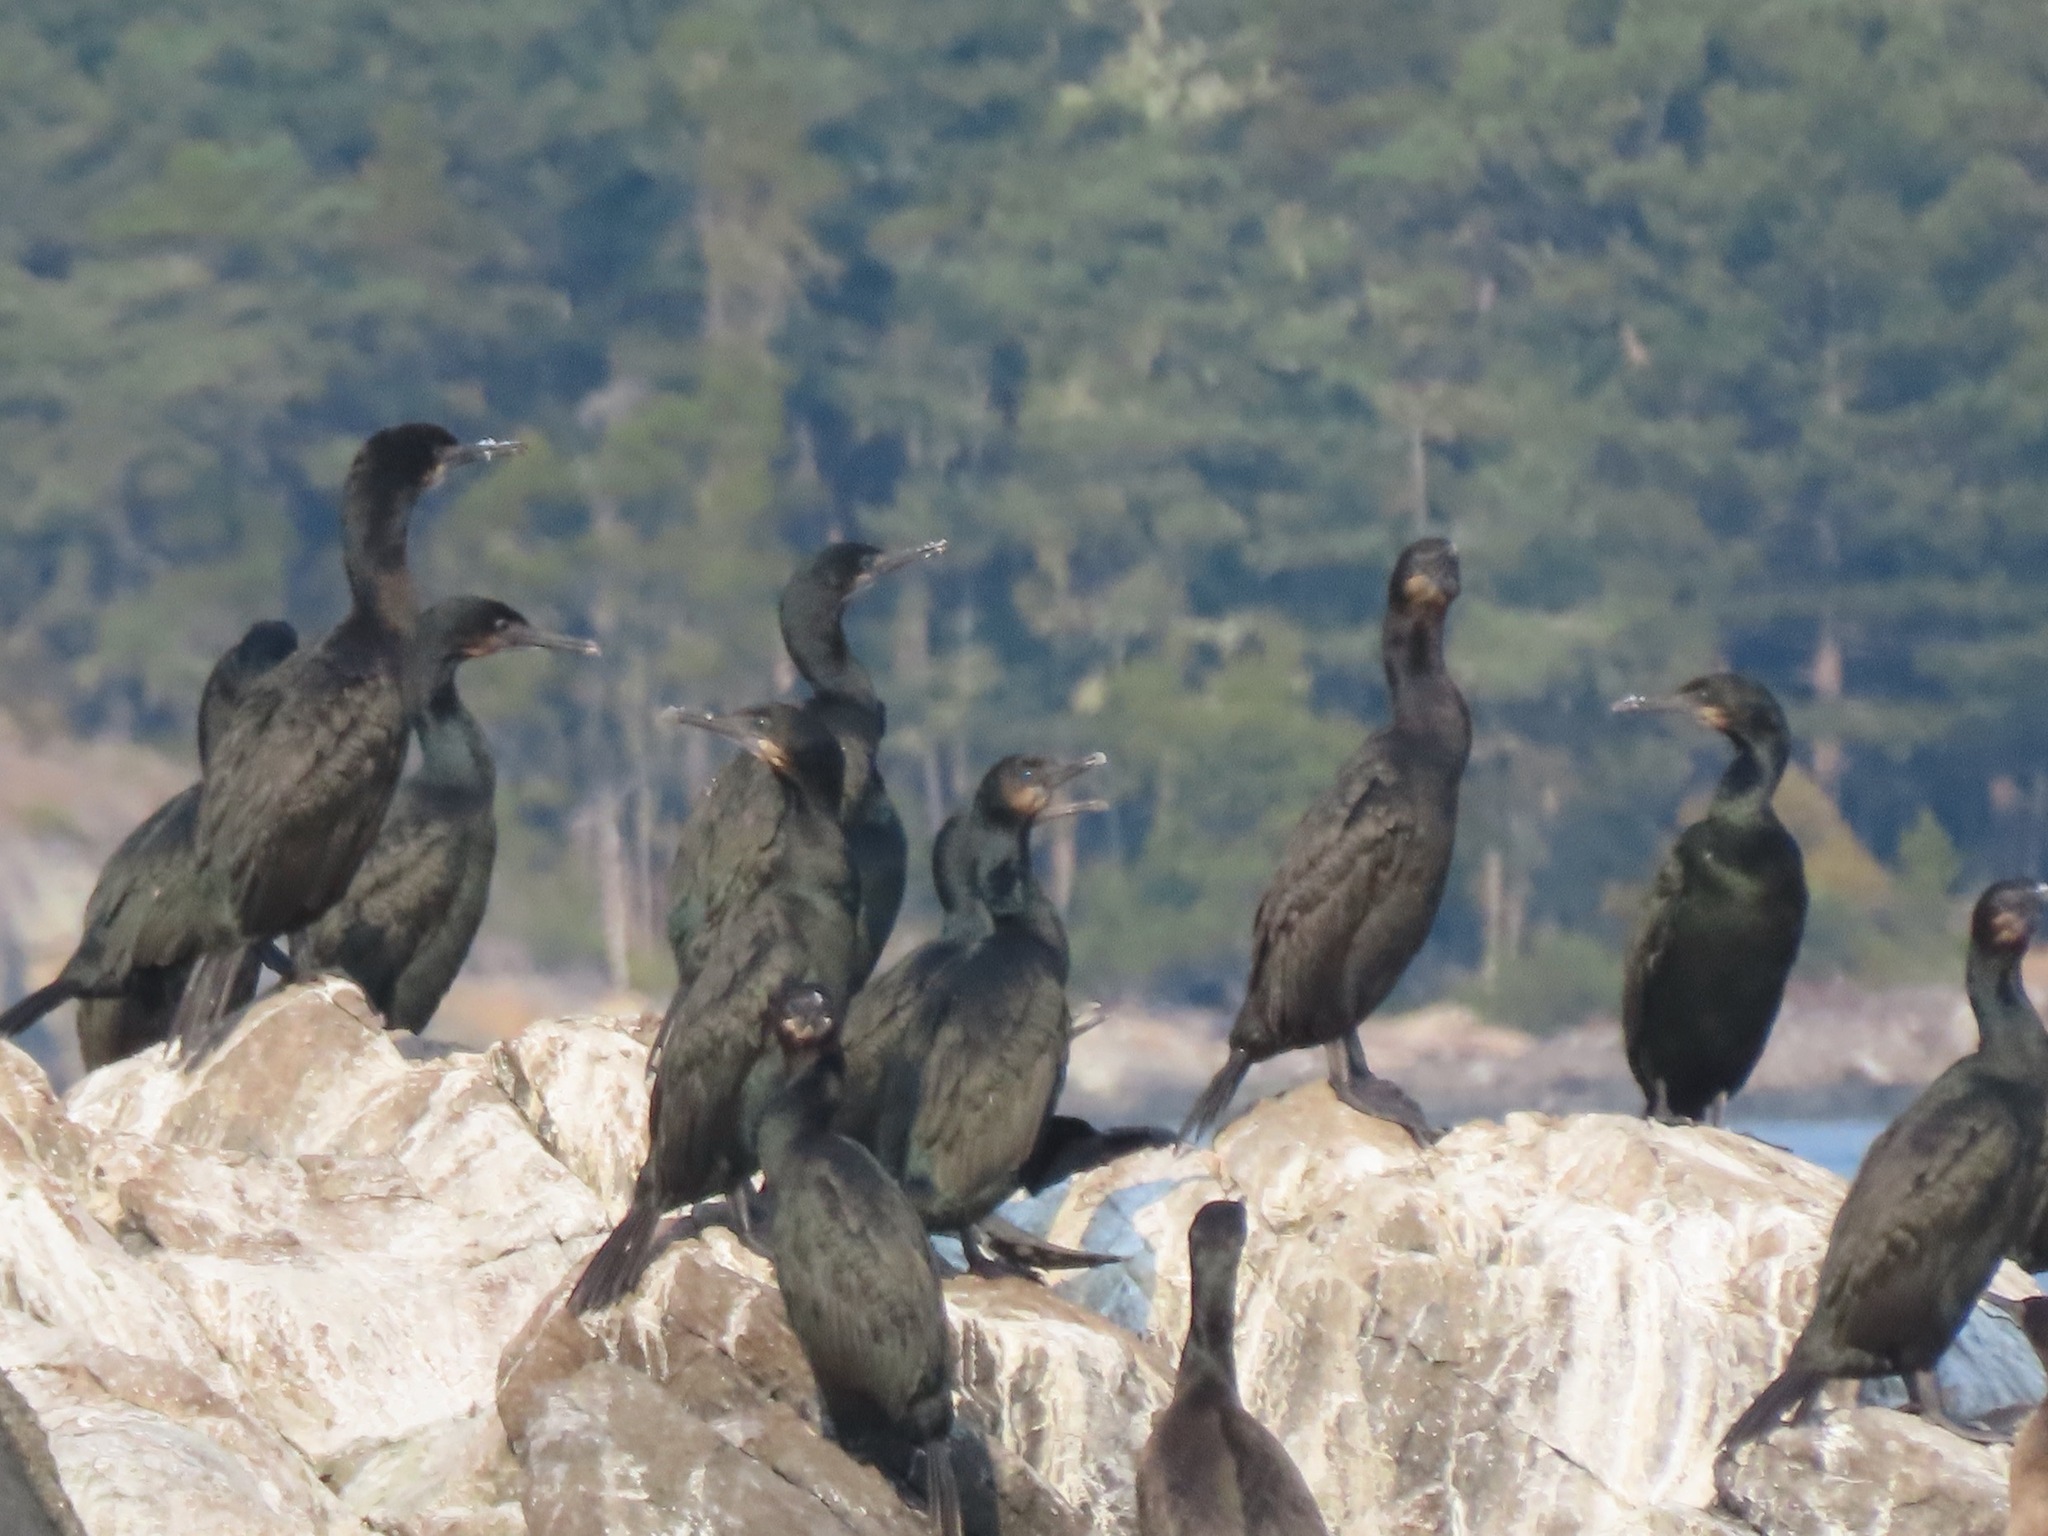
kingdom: Animalia
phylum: Chordata
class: Aves
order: Suliformes
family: Phalacrocoracidae
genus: Urile
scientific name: Urile penicillatus
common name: Brandt's cormorant
